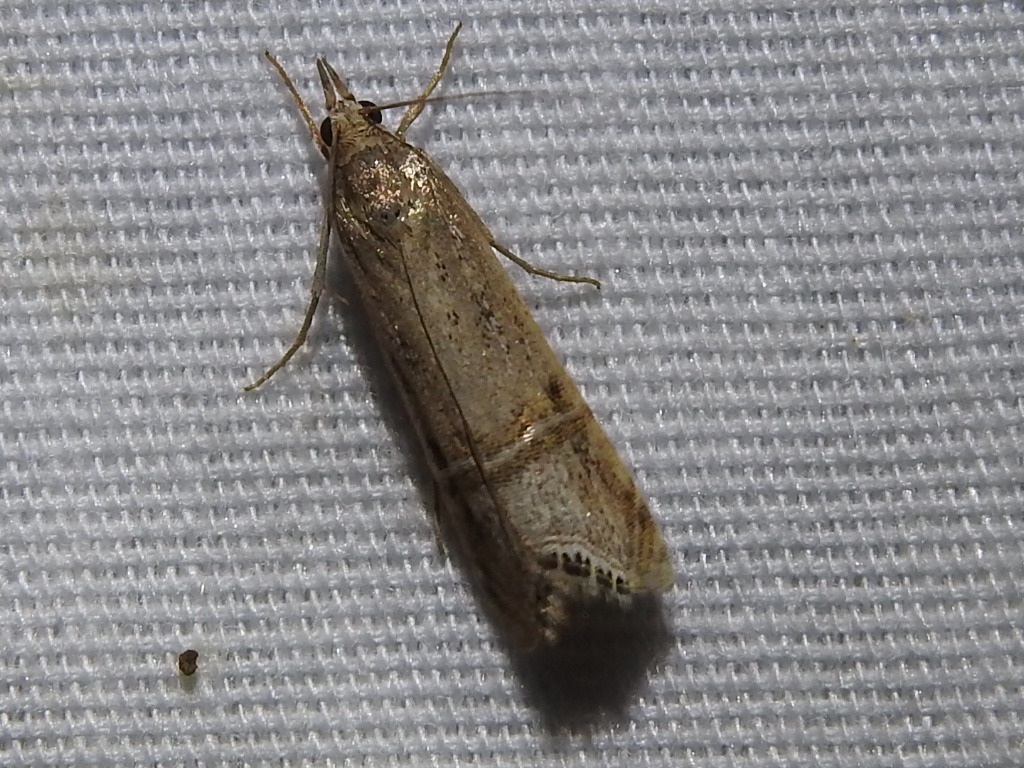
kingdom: Animalia
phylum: Arthropoda
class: Insecta
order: Lepidoptera
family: Crambidae
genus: Euchromius
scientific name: Euchromius ocellea
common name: Necklace veneer moth
